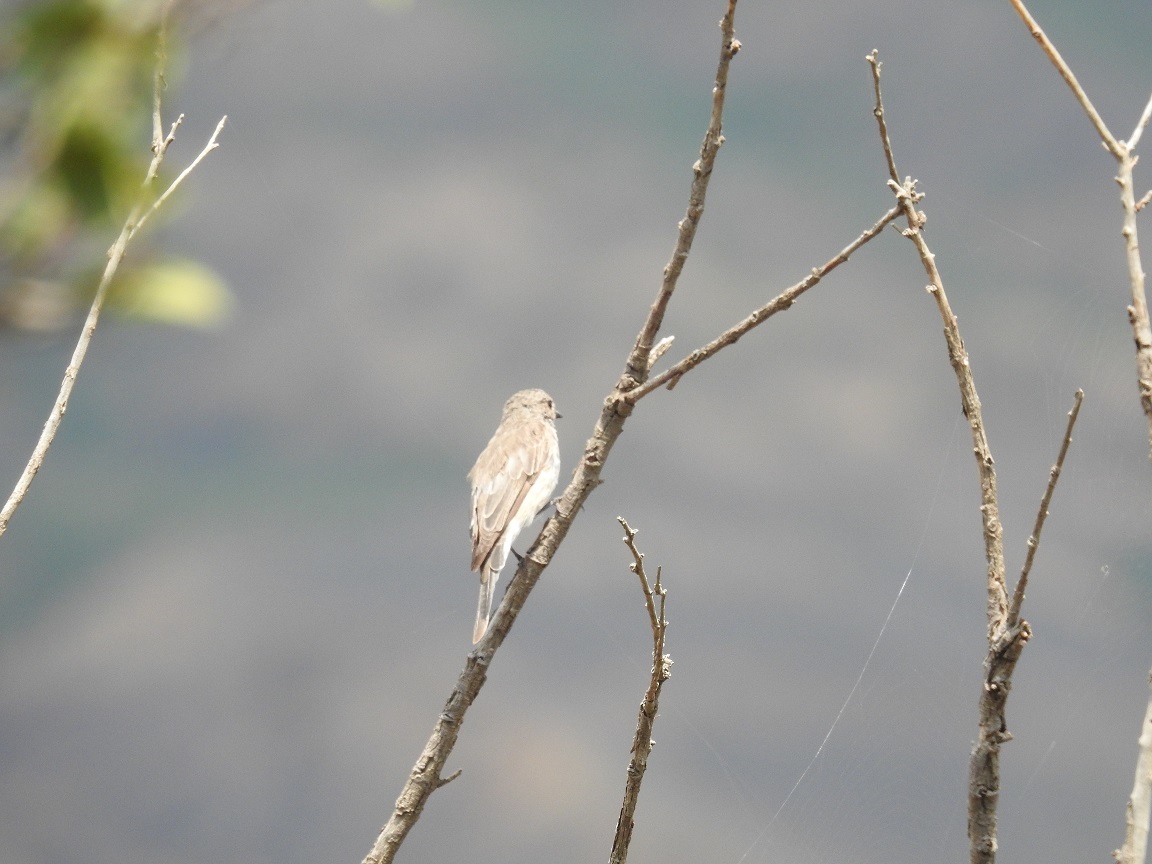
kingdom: Animalia
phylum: Chordata
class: Aves
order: Passeriformes
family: Muscicapidae
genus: Muscicapa
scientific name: Muscicapa striata
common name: Spotted flycatcher
